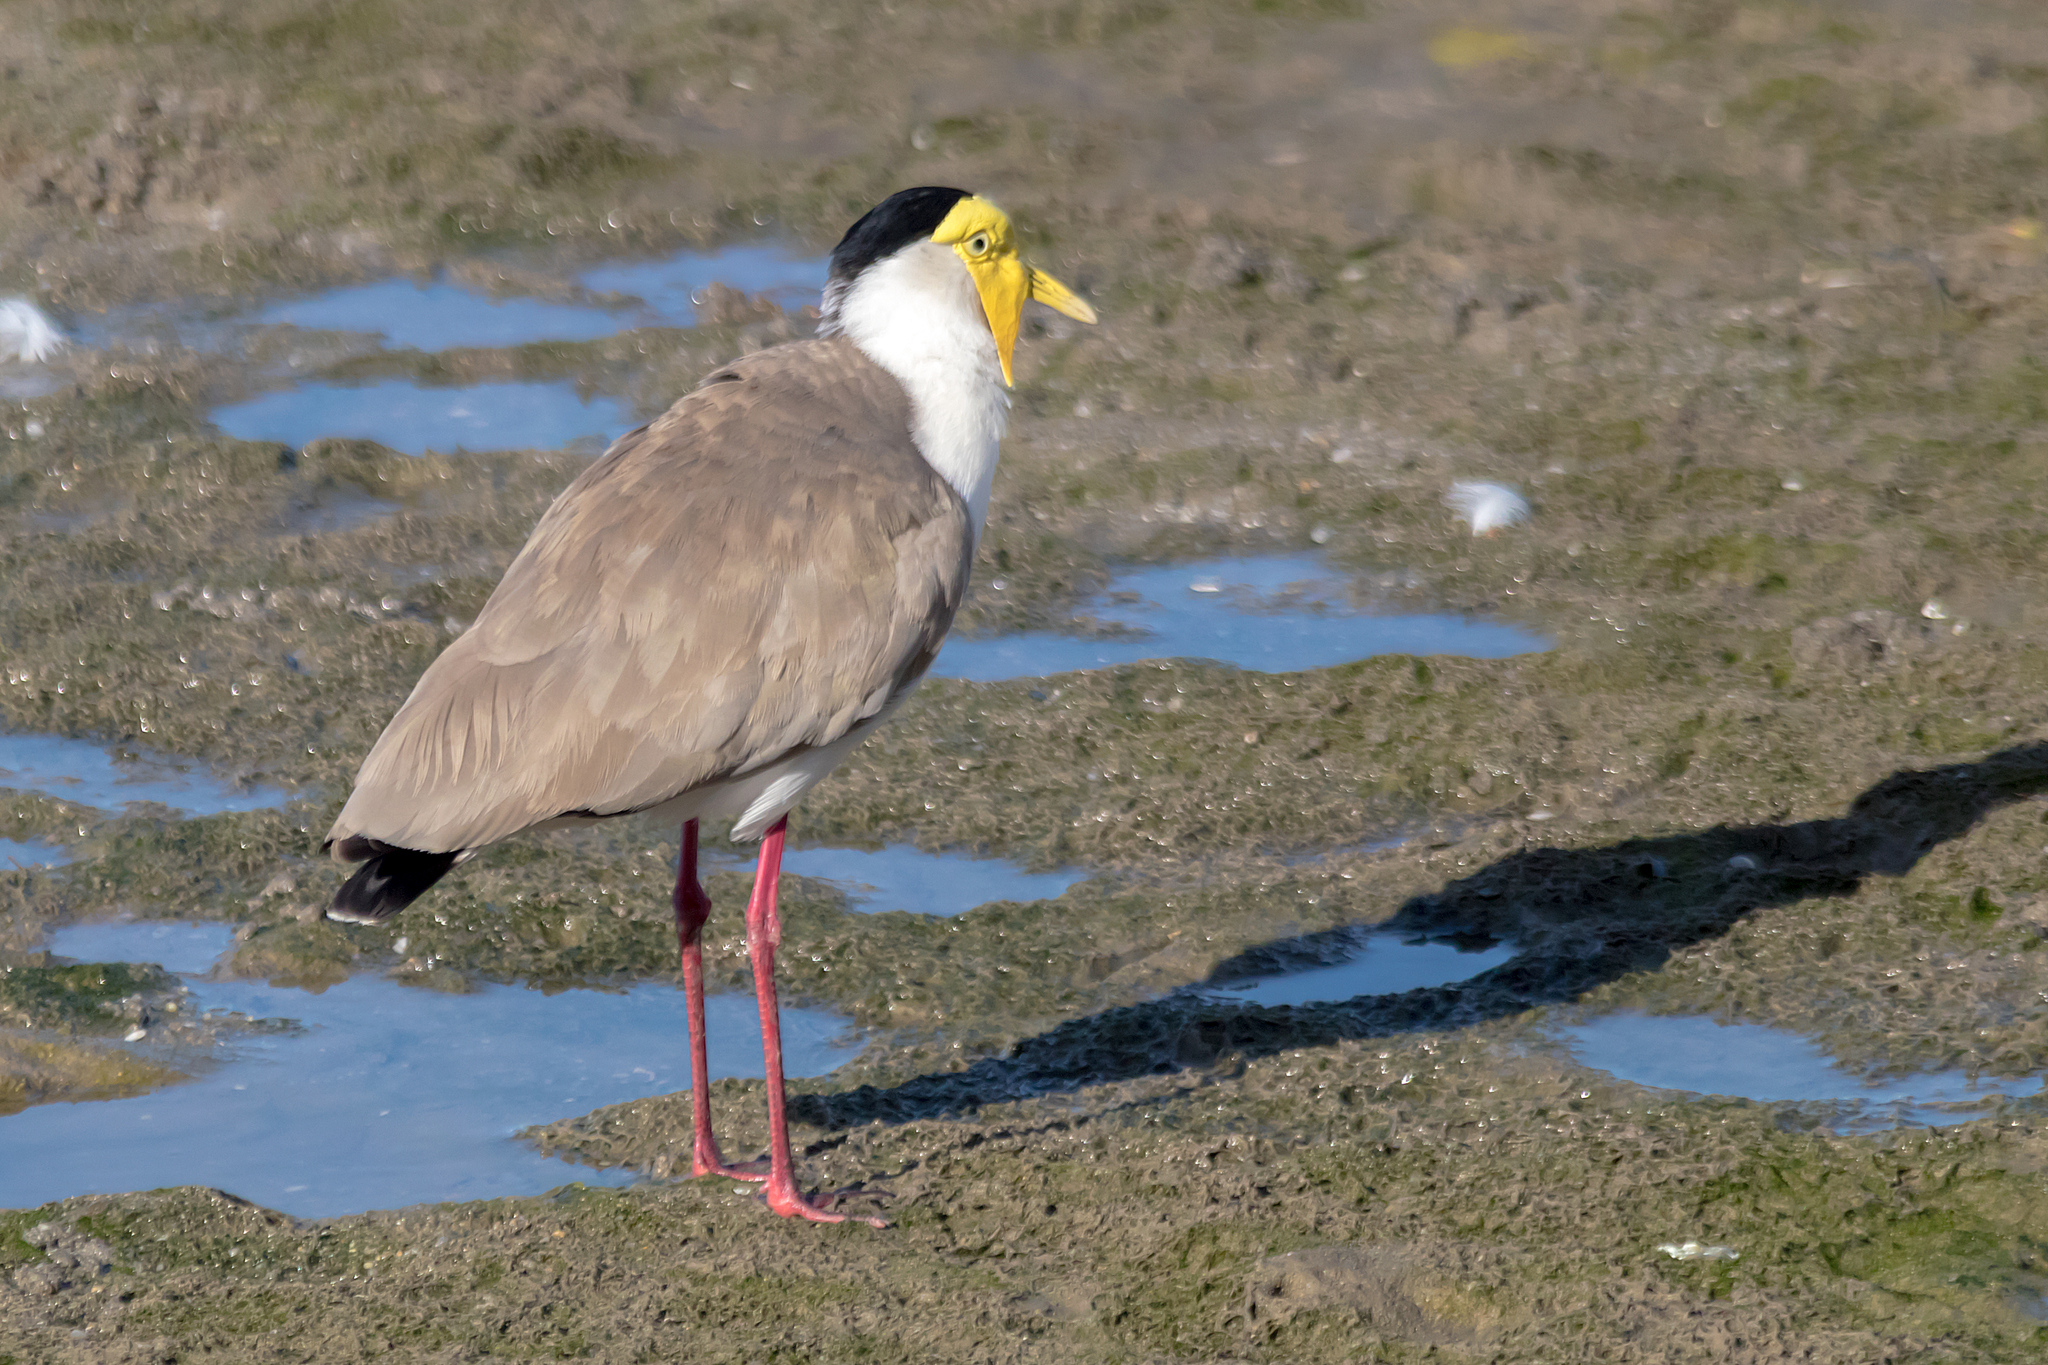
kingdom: Animalia
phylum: Chordata
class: Aves
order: Charadriiformes
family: Charadriidae
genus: Vanellus
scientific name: Vanellus miles
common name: Masked lapwing
